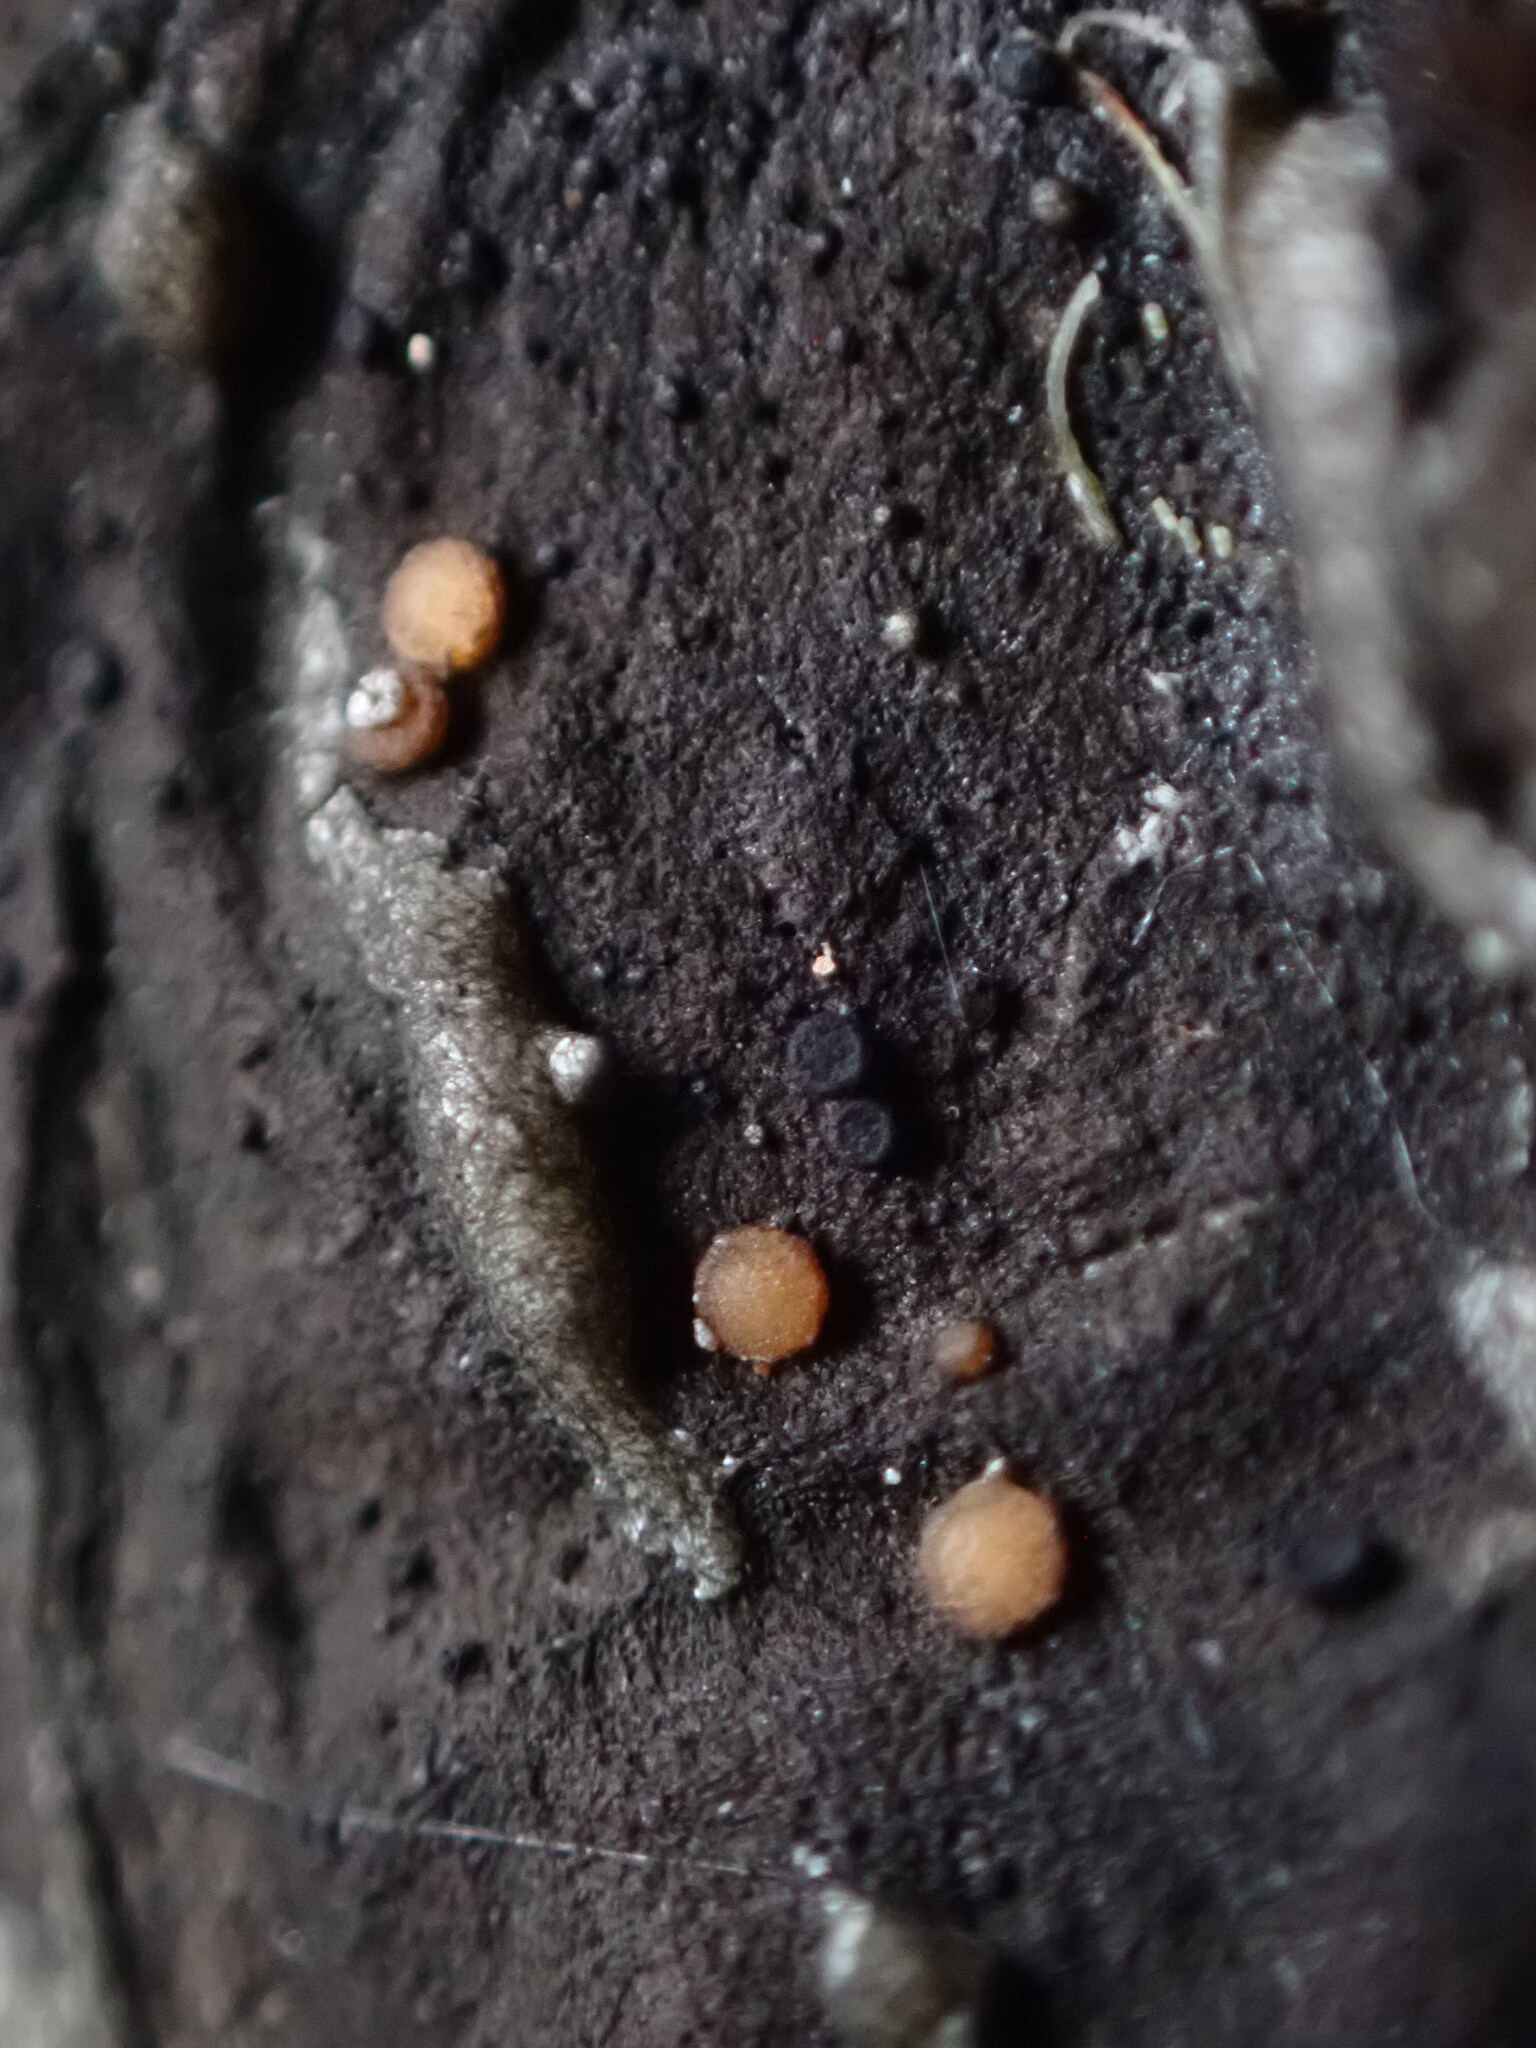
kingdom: Fungi
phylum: Ascomycota
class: Sareomycetes
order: Sareales
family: Sareaceae
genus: Sarea
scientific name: Sarea resinae
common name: Sarea lichen
